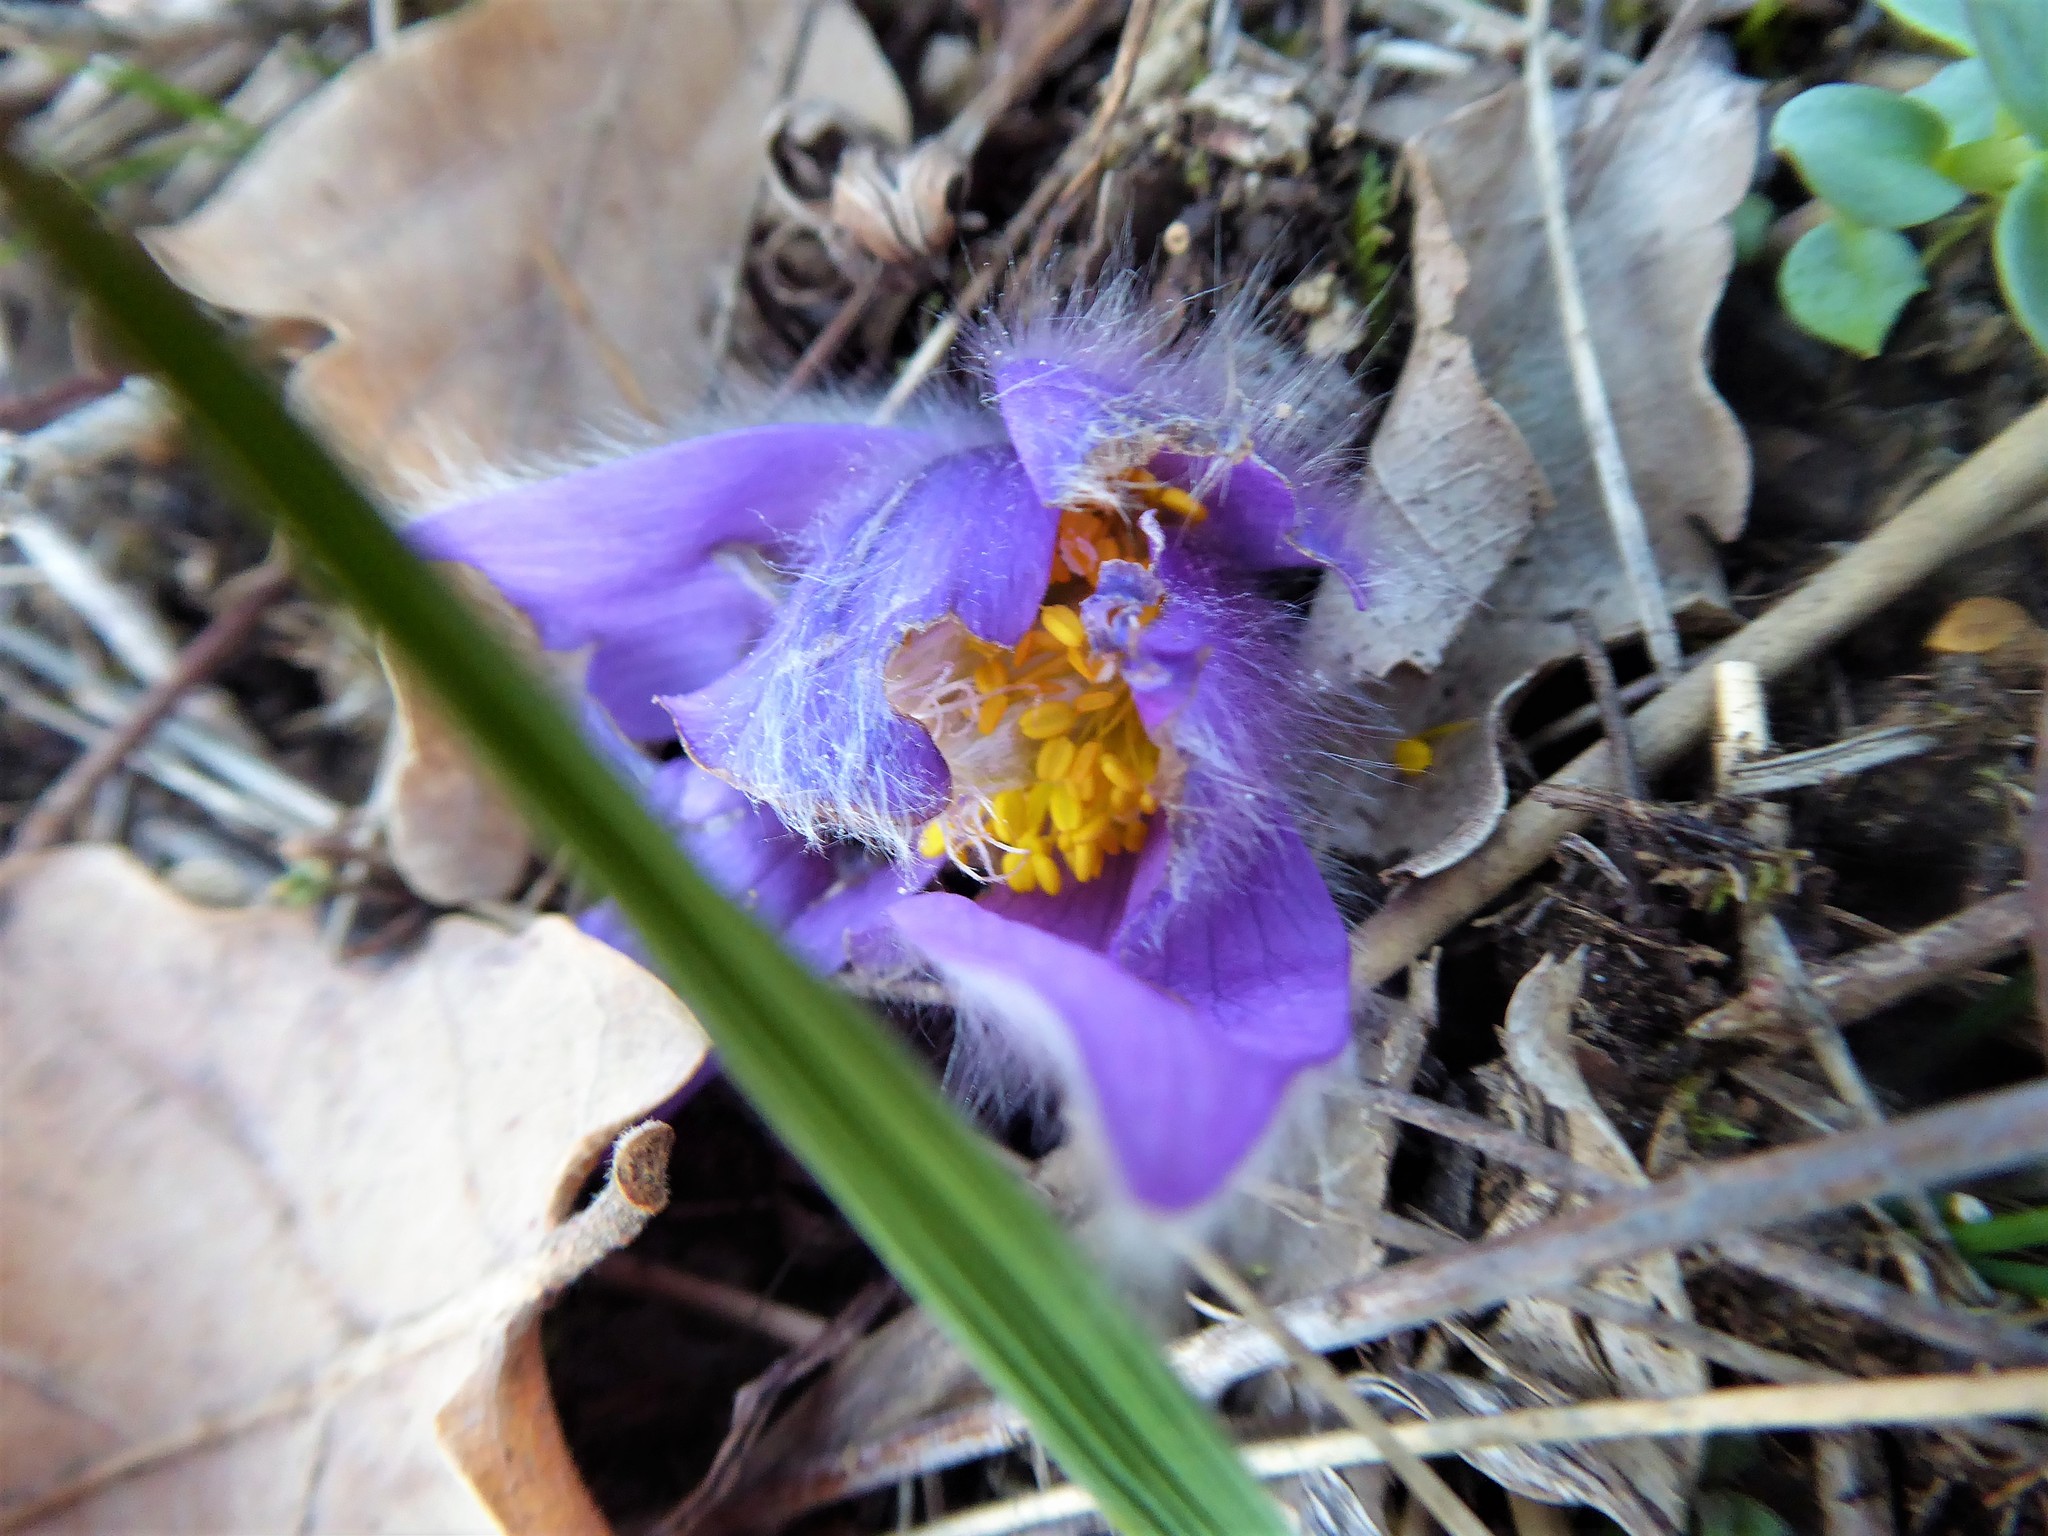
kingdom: Plantae
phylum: Tracheophyta
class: Magnoliopsida
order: Ranunculales
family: Ranunculaceae
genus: Pulsatilla
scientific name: Pulsatilla grandis
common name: Greater pasque flower
